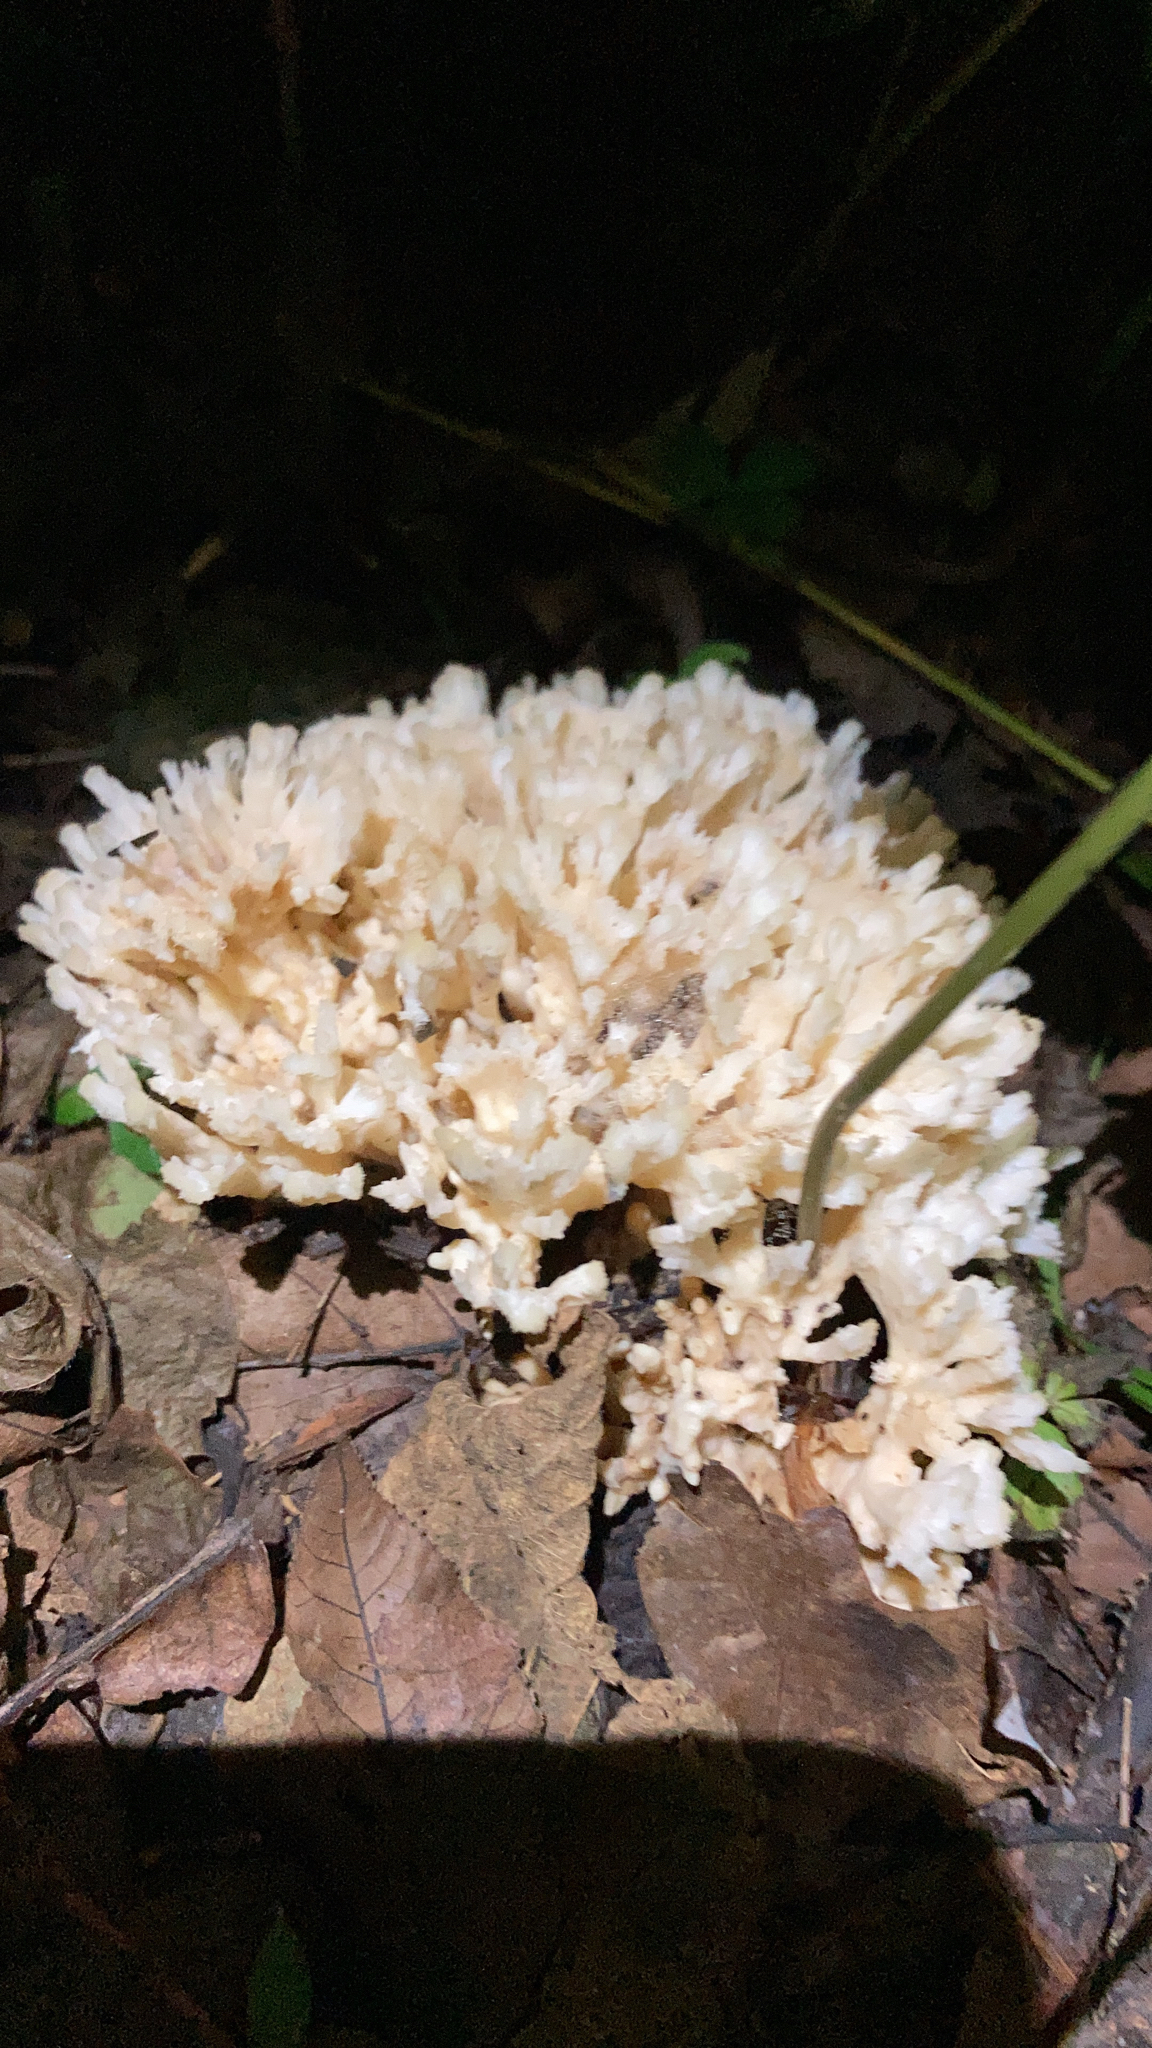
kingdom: Fungi
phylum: Basidiomycota
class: Agaricomycetes
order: Sebacinales
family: Sebacinaceae
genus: Sebacina
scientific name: Sebacina schweinitzii
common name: Jellied false coral fungus
